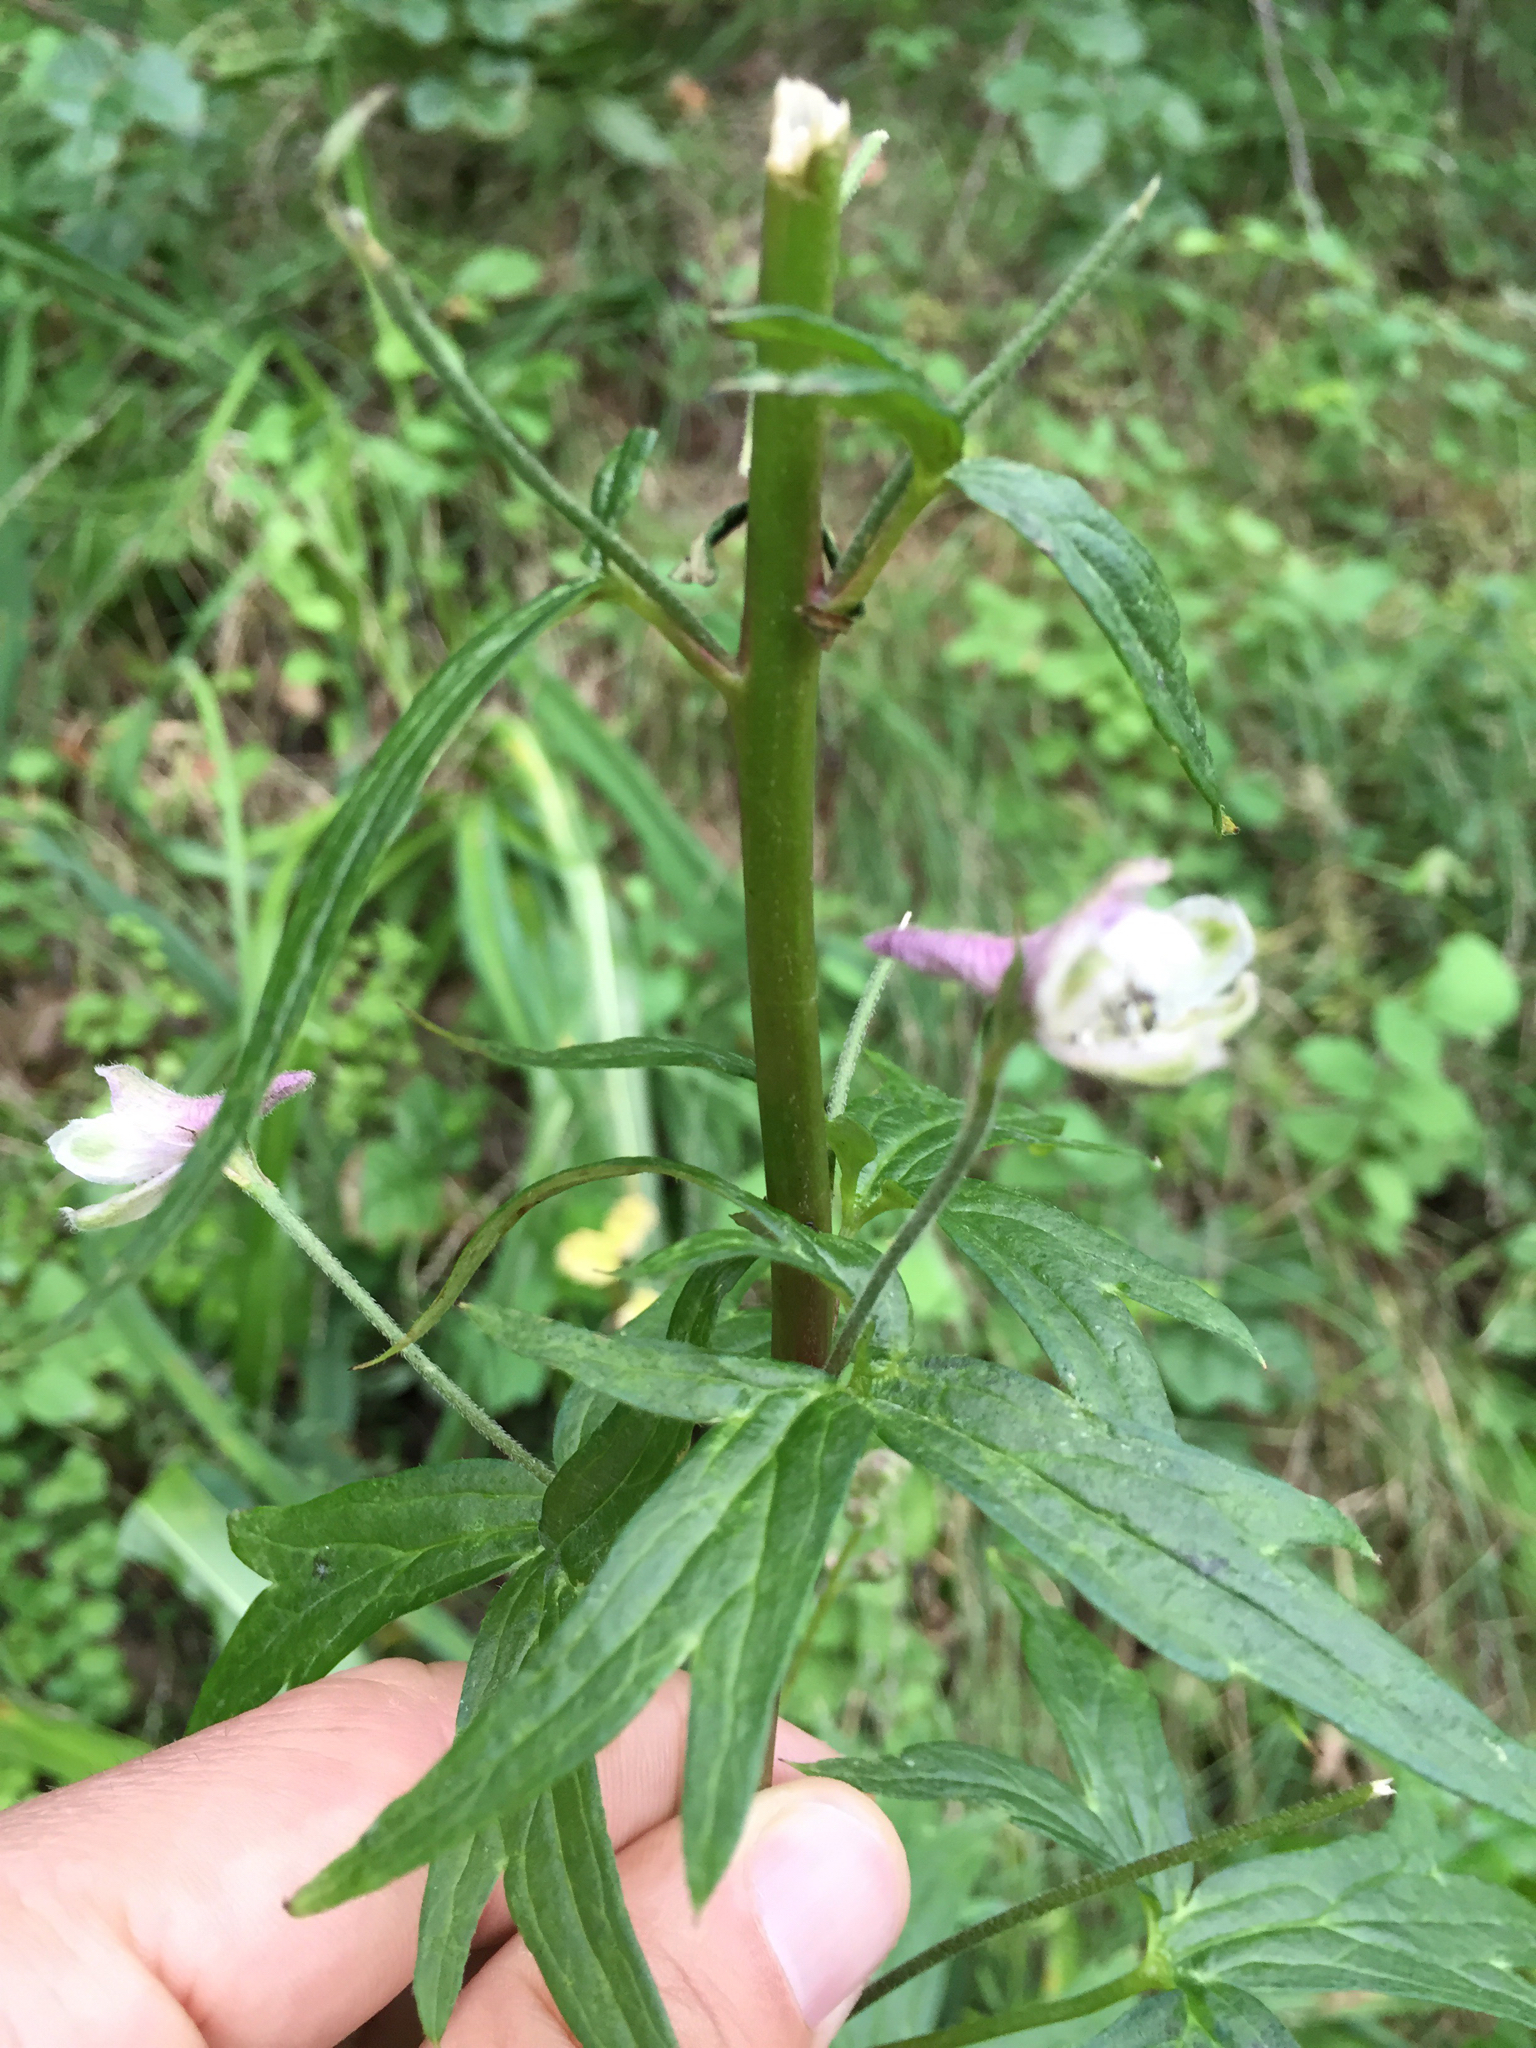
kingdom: Plantae
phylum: Tracheophyta
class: Magnoliopsida
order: Ranunculales
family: Ranunculaceae
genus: Delphinium
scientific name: Delphinium californicum
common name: California larkspur
